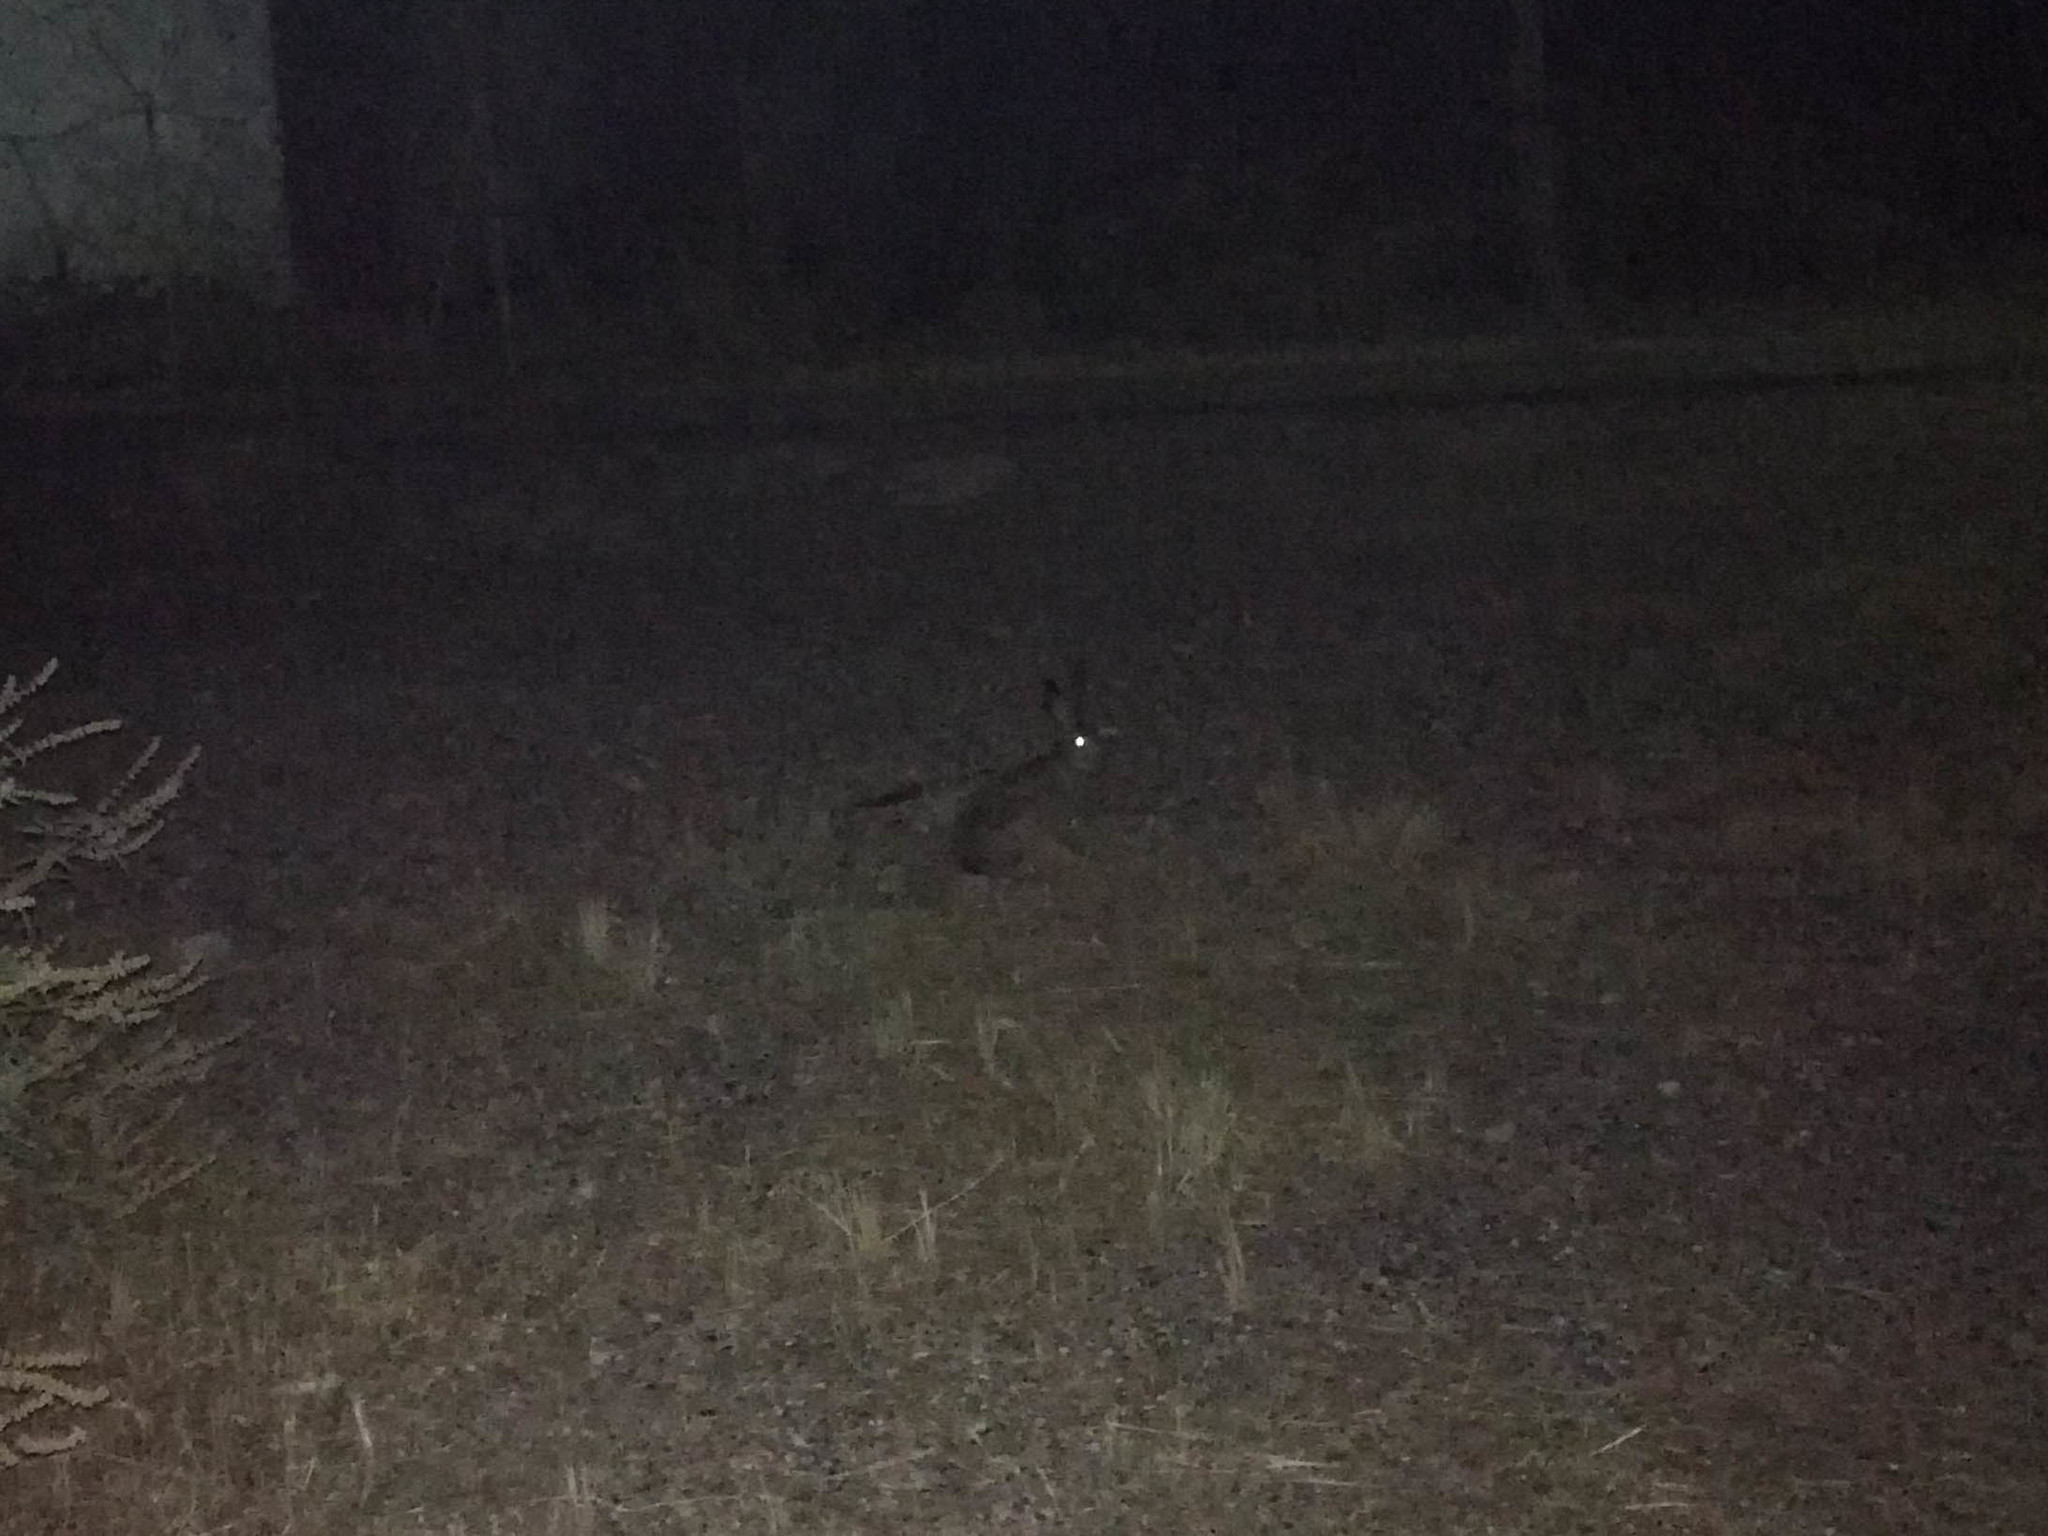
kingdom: Animalia
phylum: Chordata
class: Mammalia
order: Lagomorpha
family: Leporidae
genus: Lepus
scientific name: Lepus europaeus
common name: European hare
